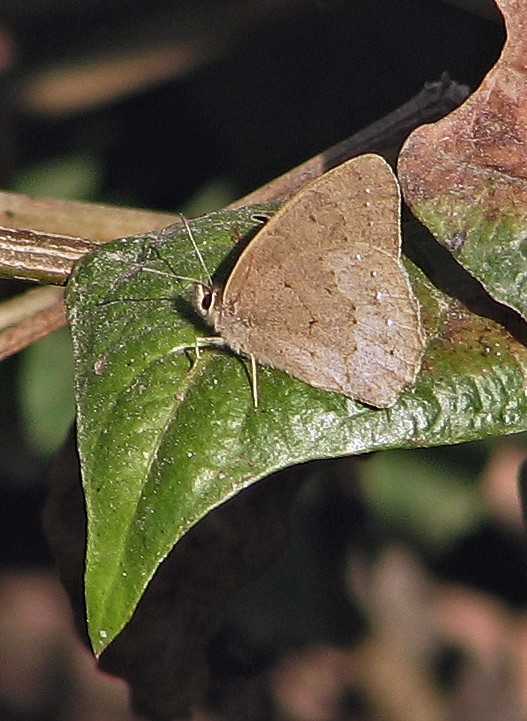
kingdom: Animalia
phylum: Arthropoda
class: Insecta
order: Lepidoptera
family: Nymphalidae
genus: Euptychia
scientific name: Euptychia
